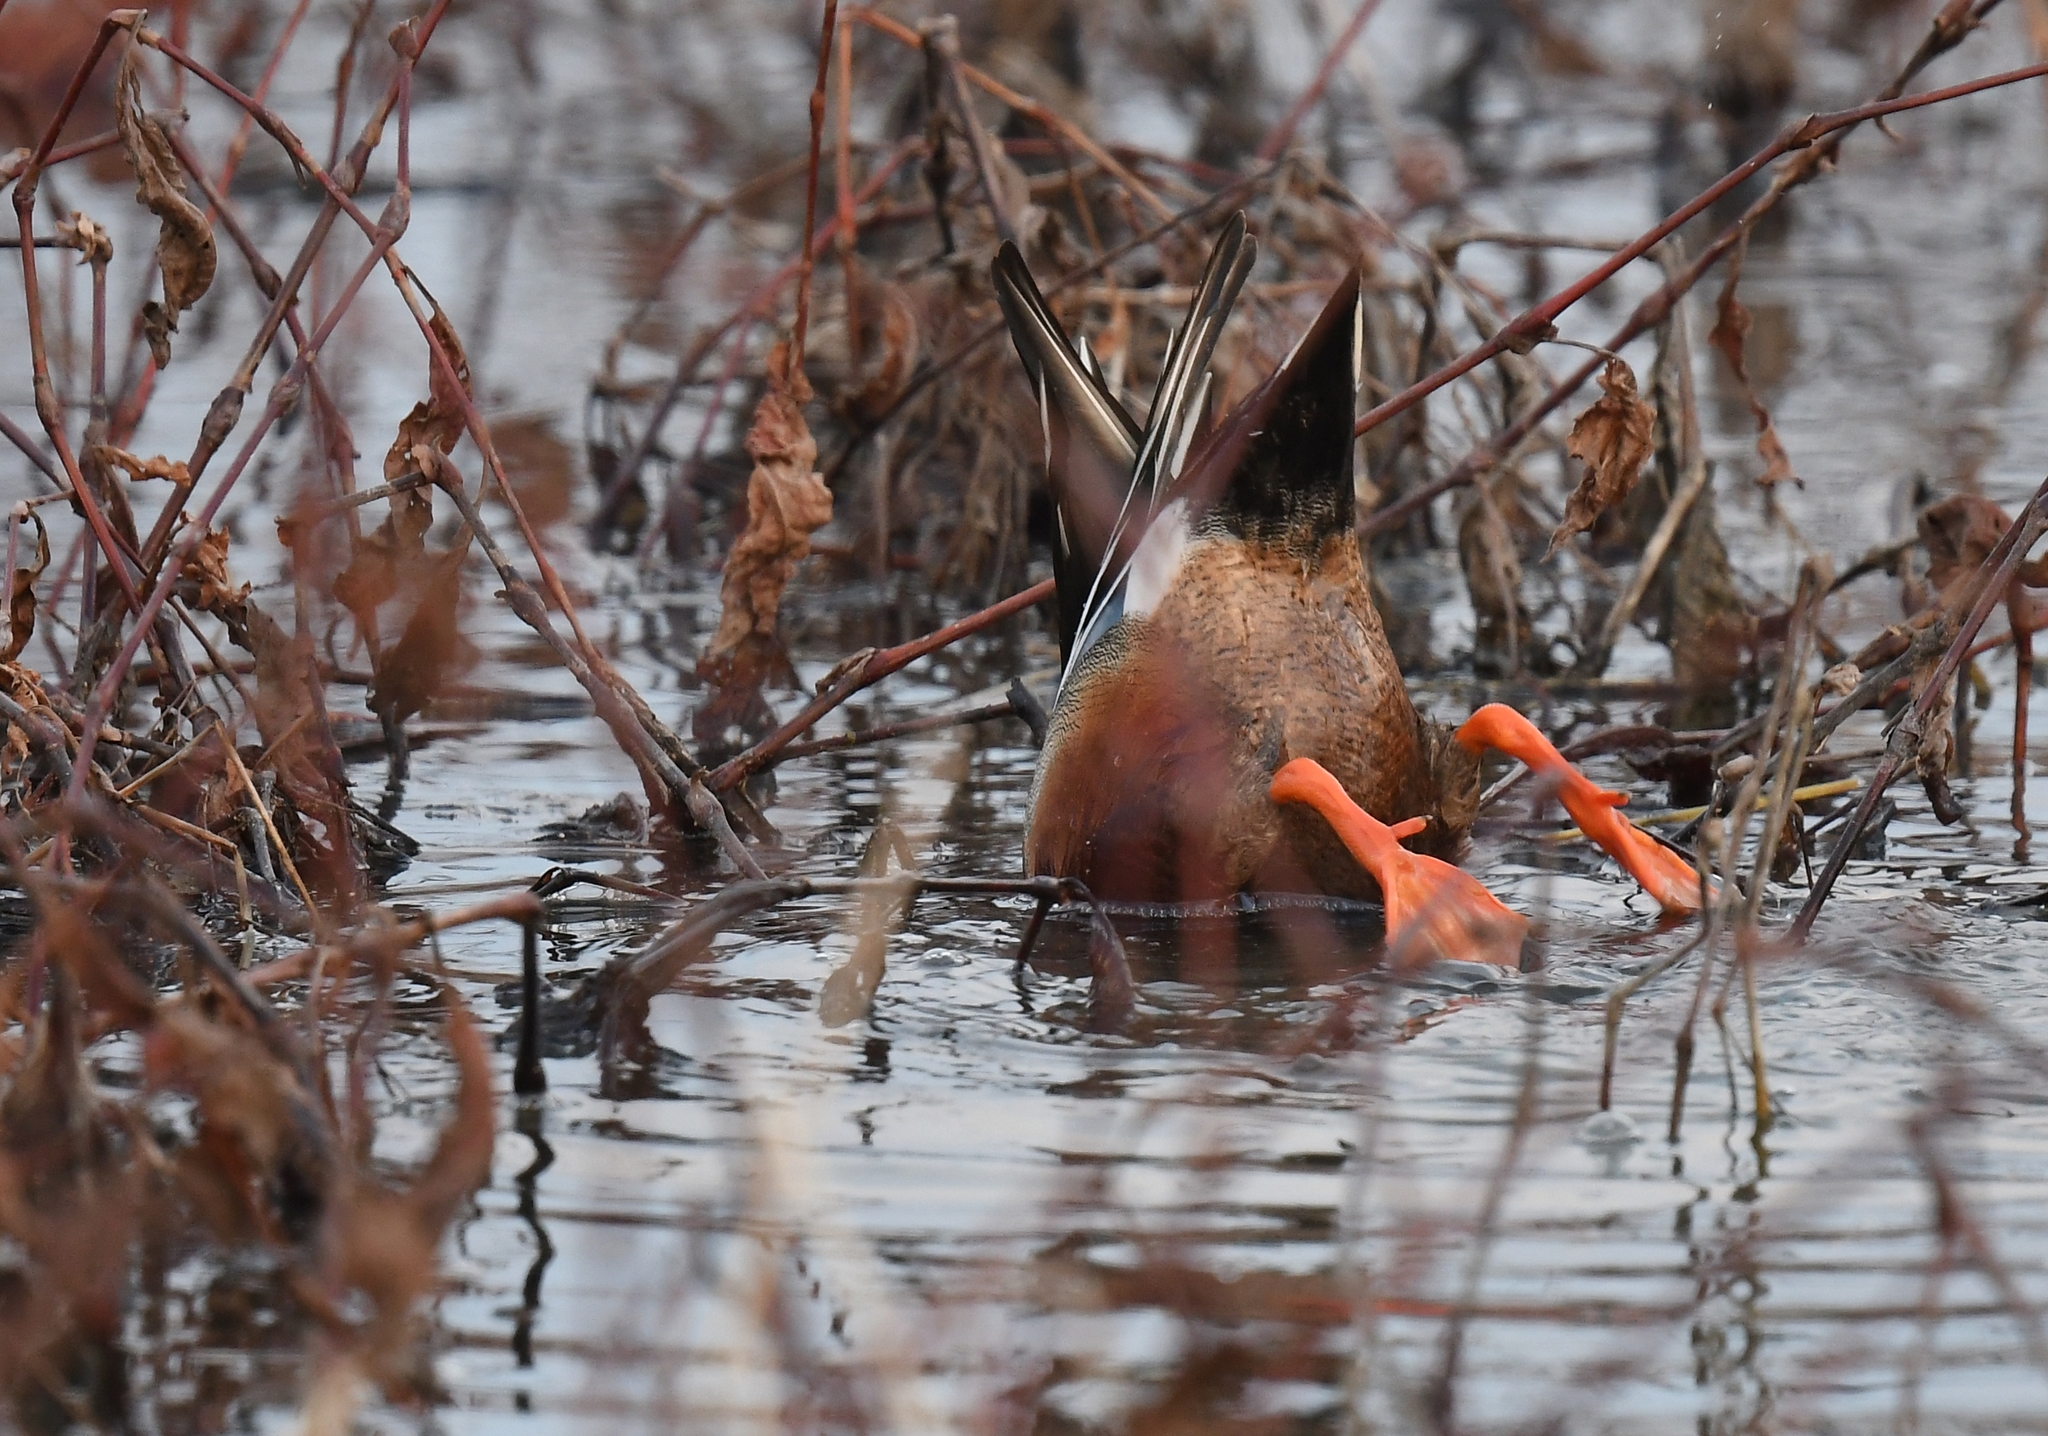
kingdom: Animalia
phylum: Chordata
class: Aves
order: Anseriformes
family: Anatidae
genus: Spatula
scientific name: Spatula clypeata
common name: Northern shoveler
